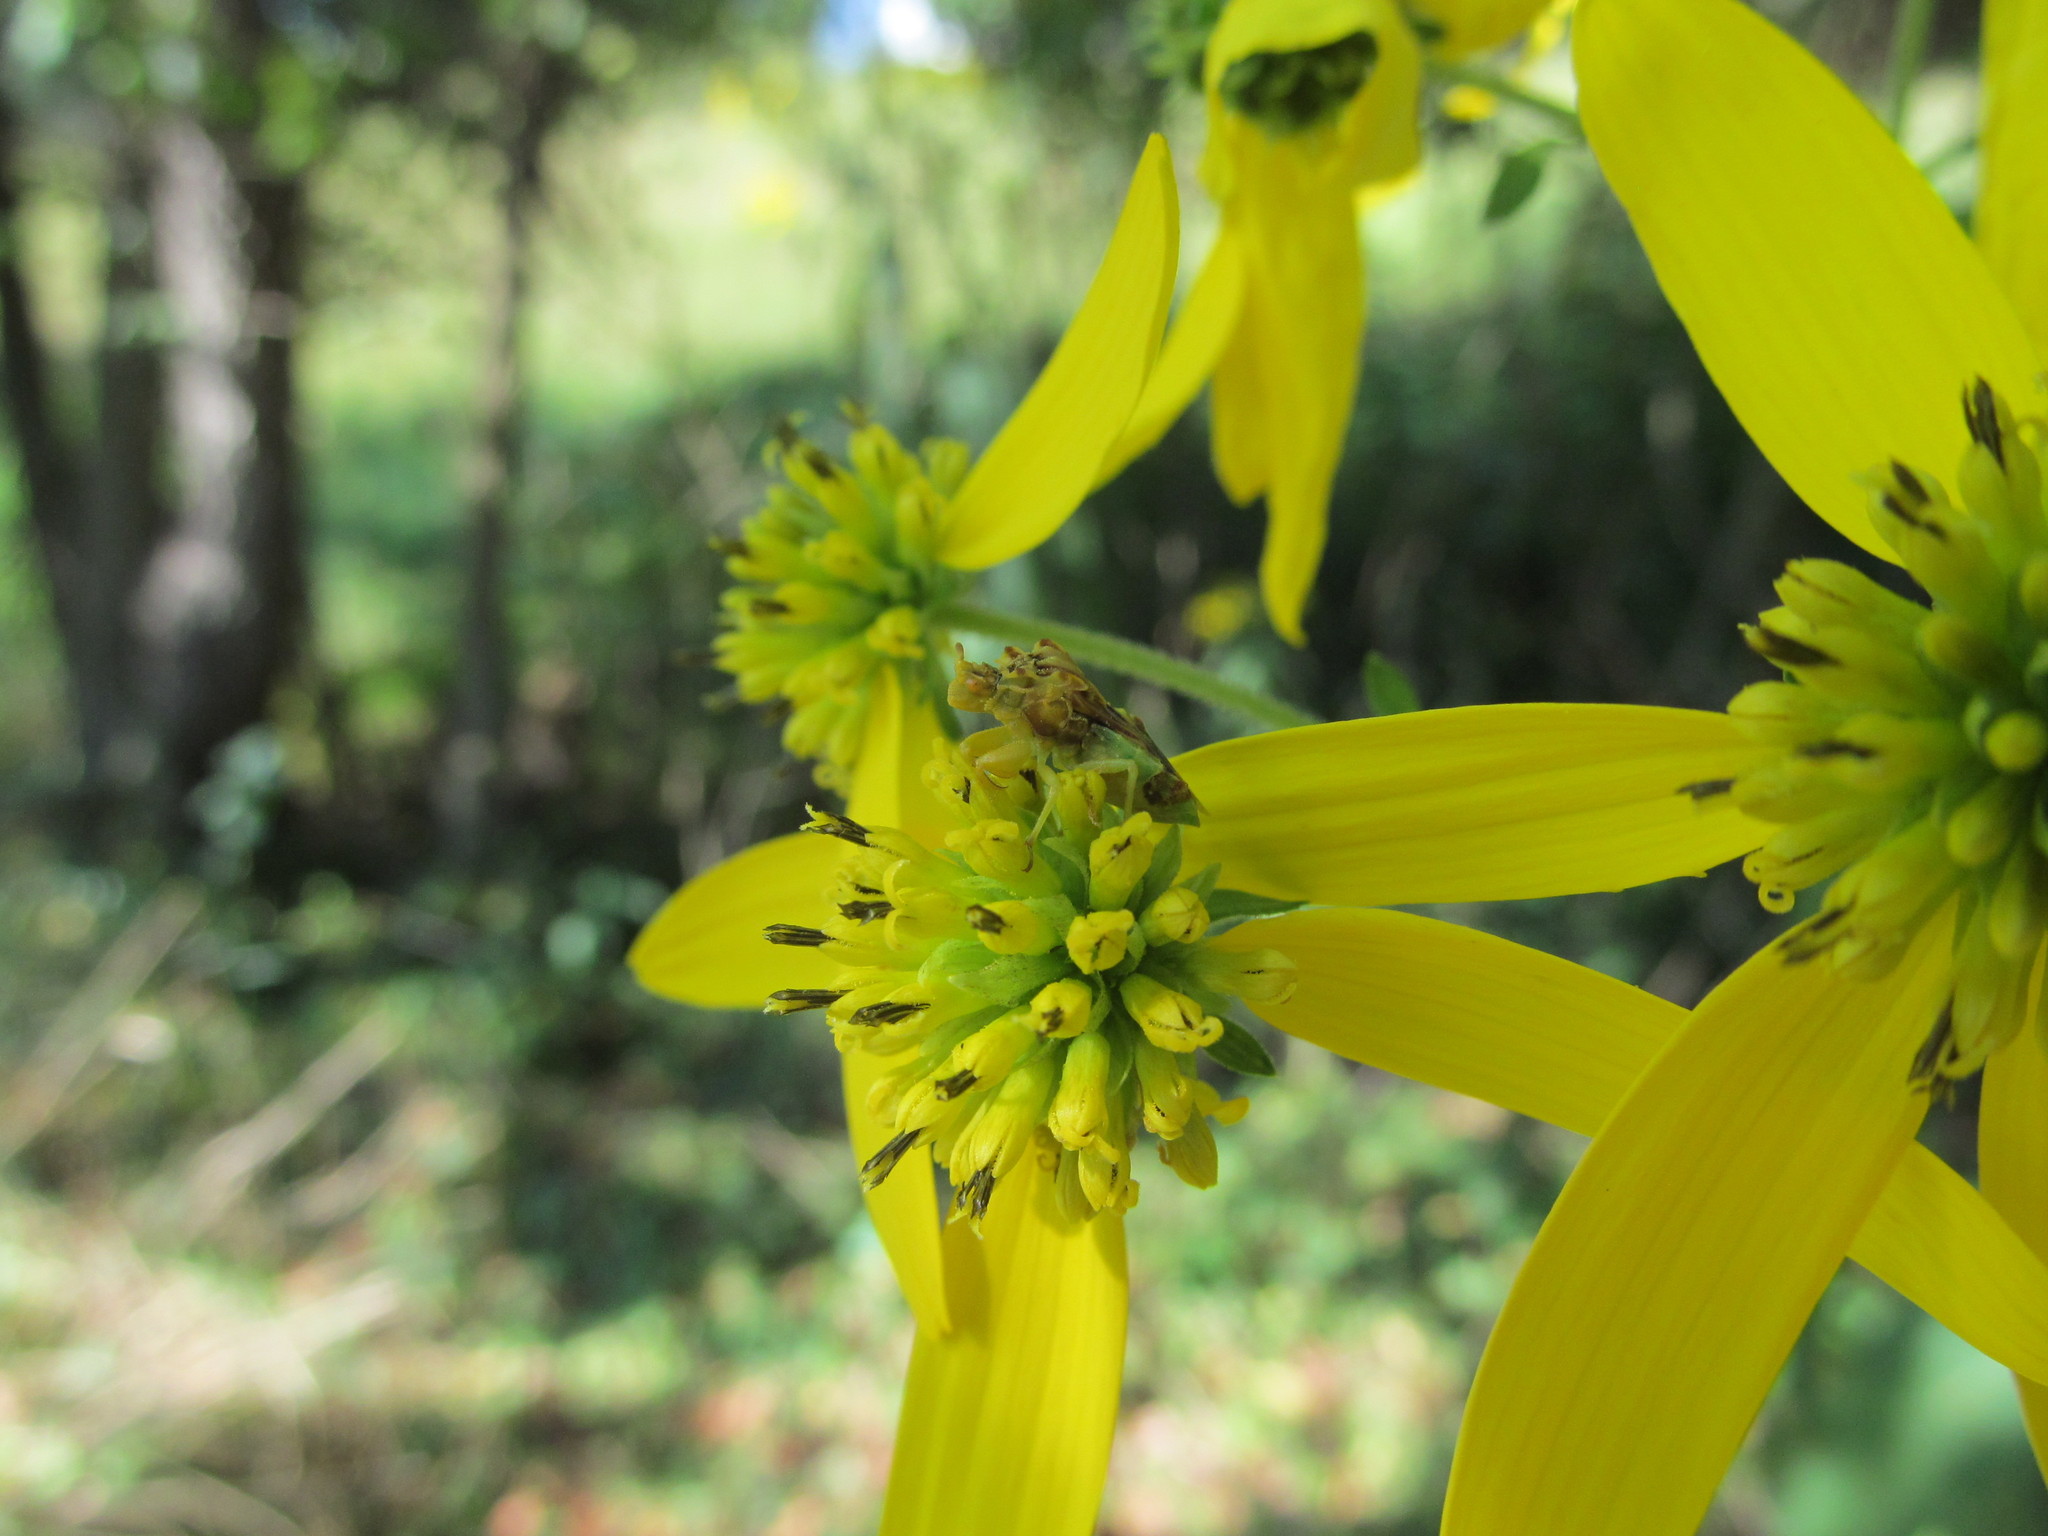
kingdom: Plantae
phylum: Tracheophyta
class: Magnoliopsida
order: Asterales
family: Asteraceae
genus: Verbesina
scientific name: Verbesina alternifolia
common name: Wingstem
